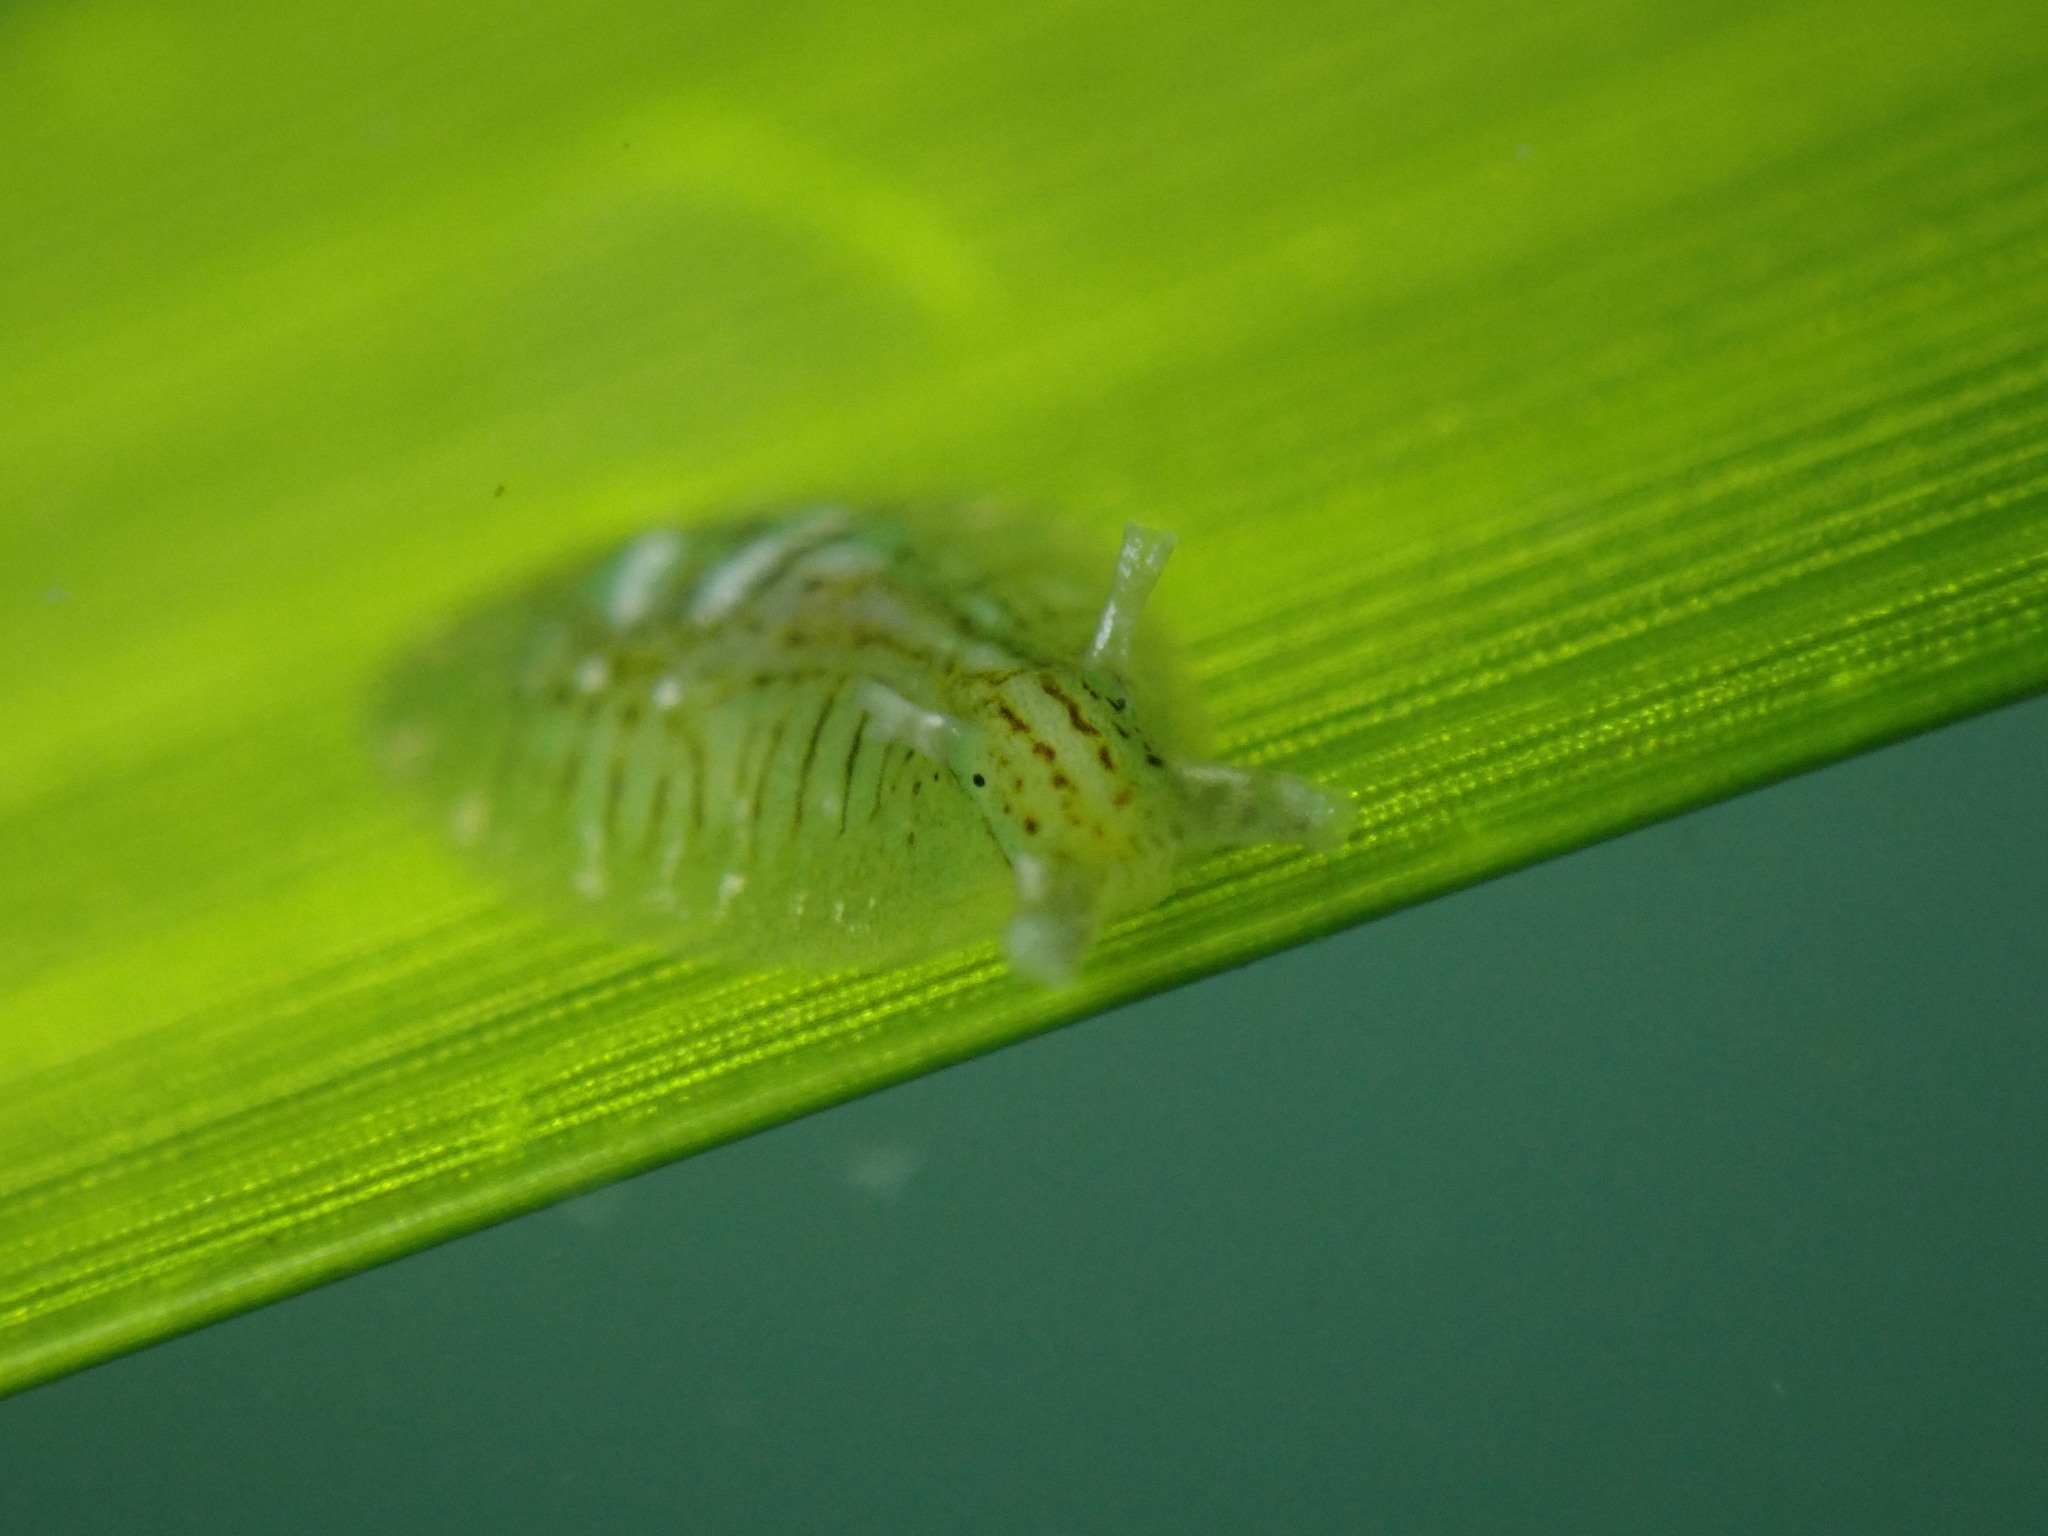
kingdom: Animalia
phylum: Mollusca
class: Gastropoda
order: Aplysiida
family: Aplysiidae
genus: Phyllaplysia
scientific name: Phyllaplysia taylori
